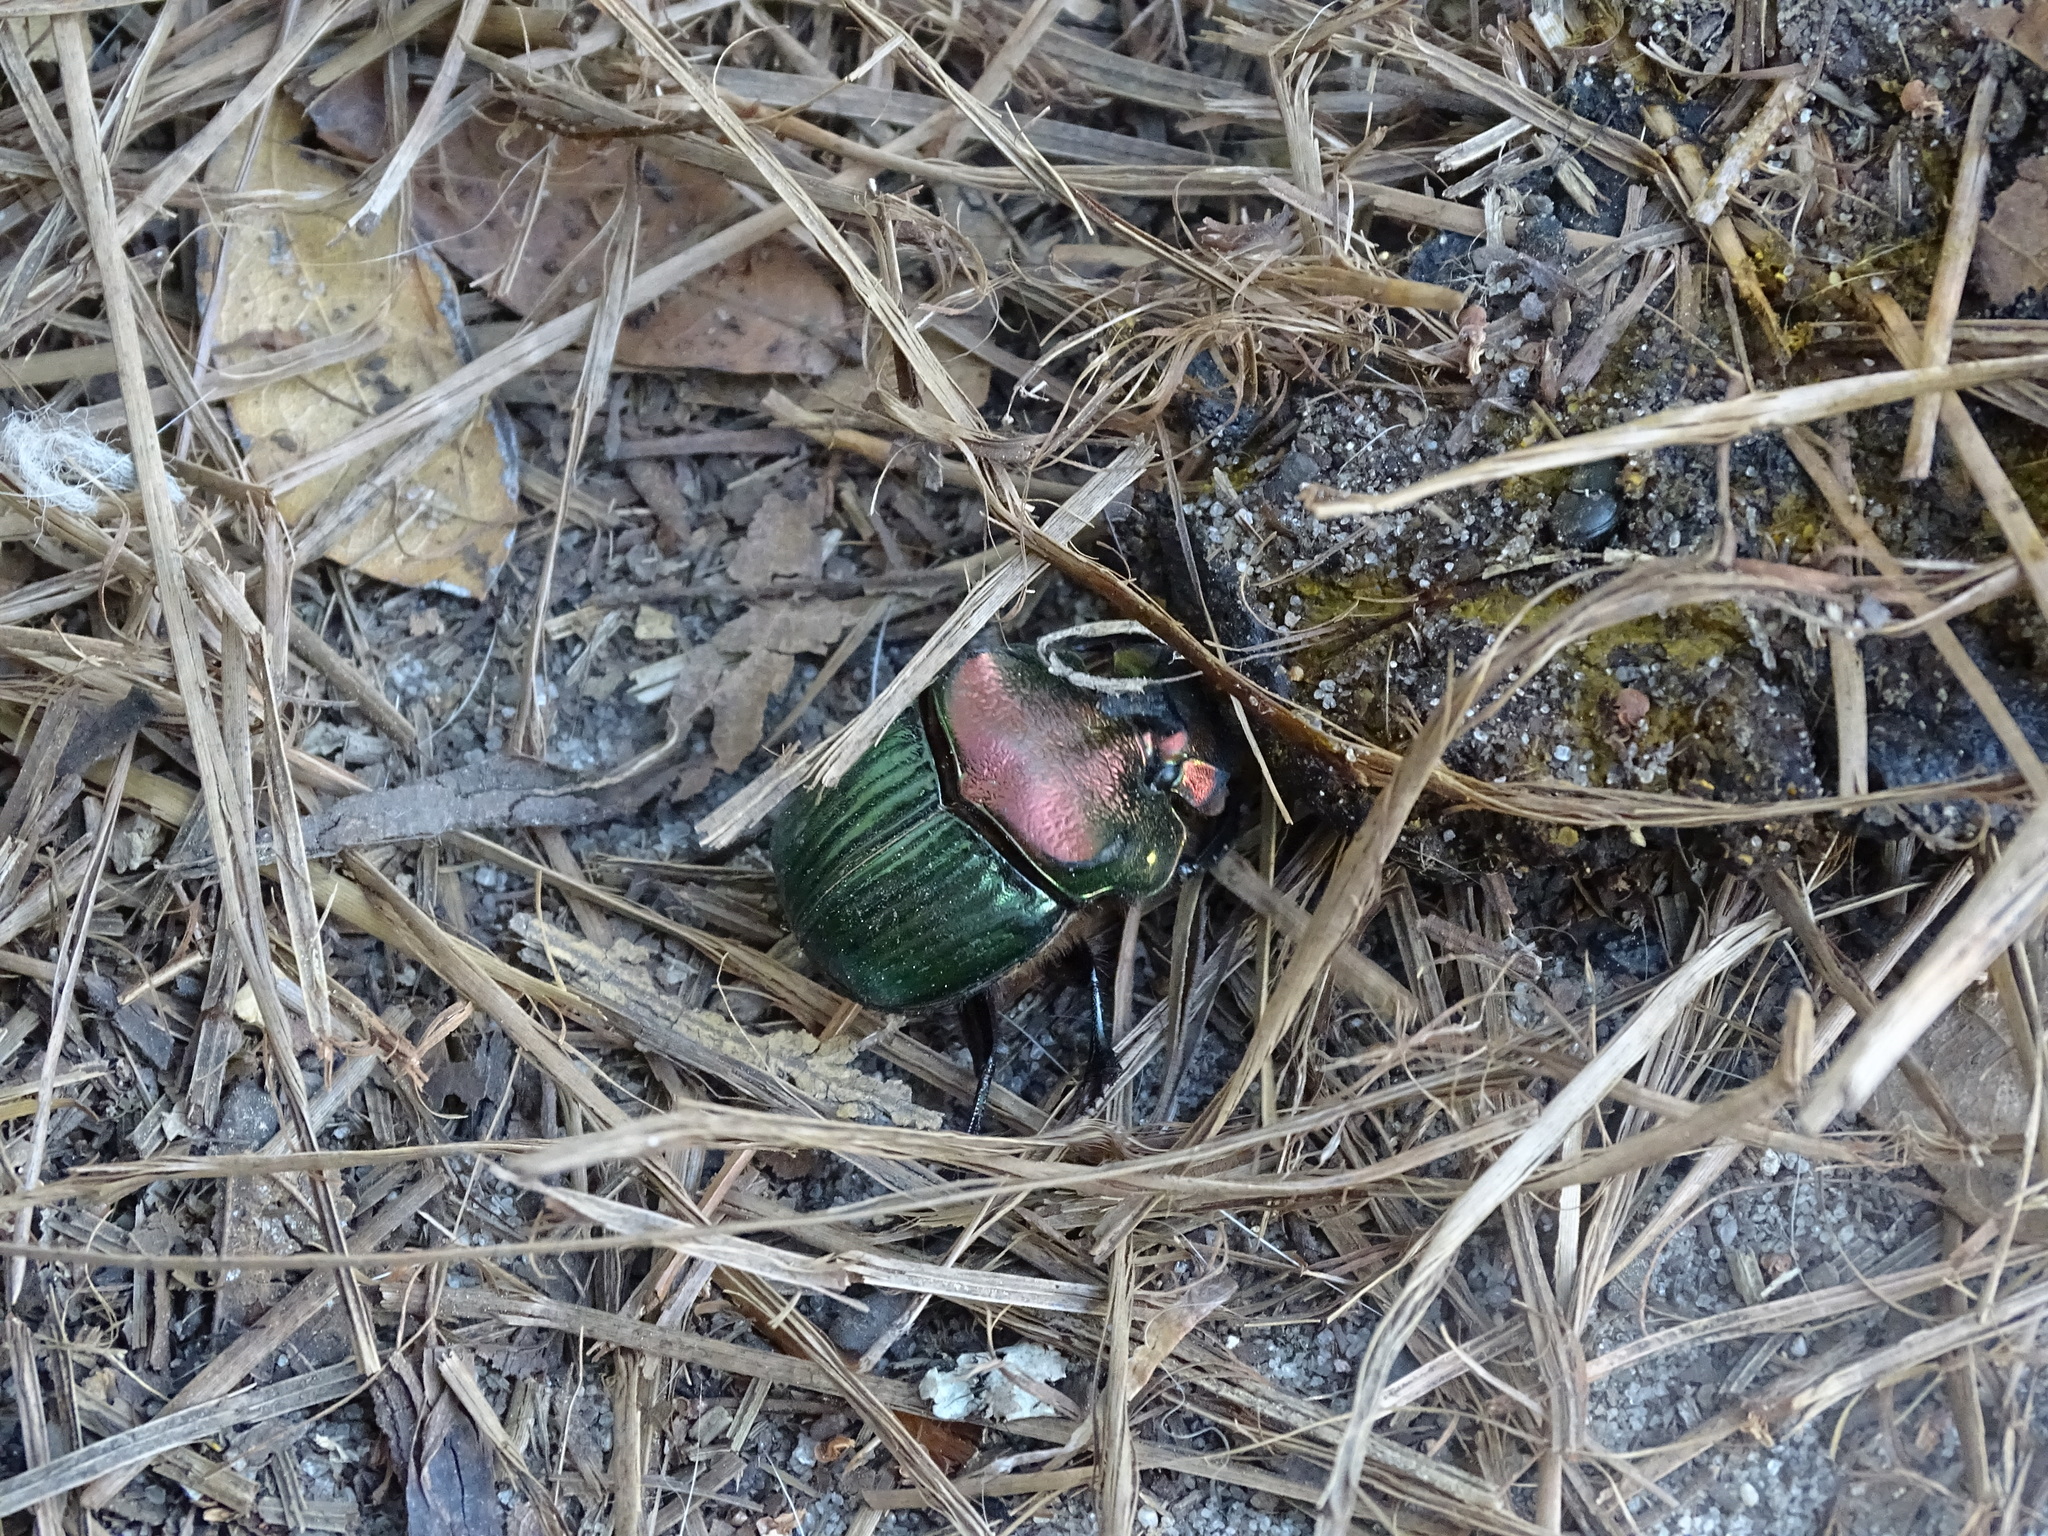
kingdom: Animalia
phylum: Arthropoda
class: Insecta
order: Coleoptera
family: Scarabaeidae
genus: Phanaeus
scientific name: Phanaeus igneus
